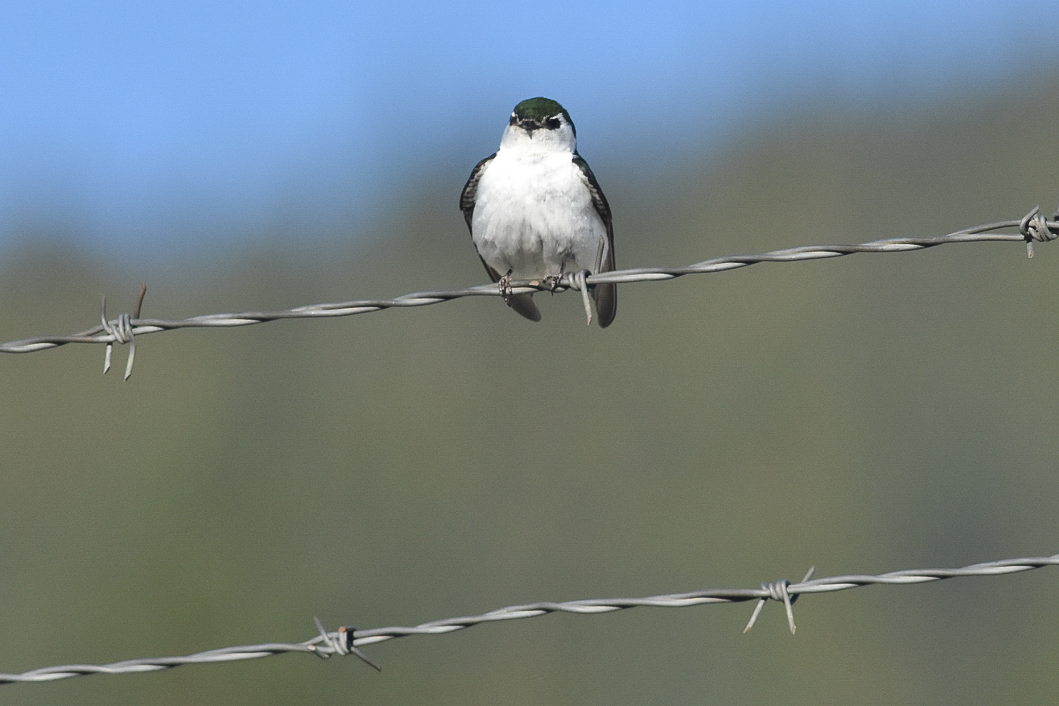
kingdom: Animalia
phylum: Chordata
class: Aves
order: Passeriformes
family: Hirundinidae
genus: Tachycineta
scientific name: Tachycineta thalassina
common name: Violet-green swallow
